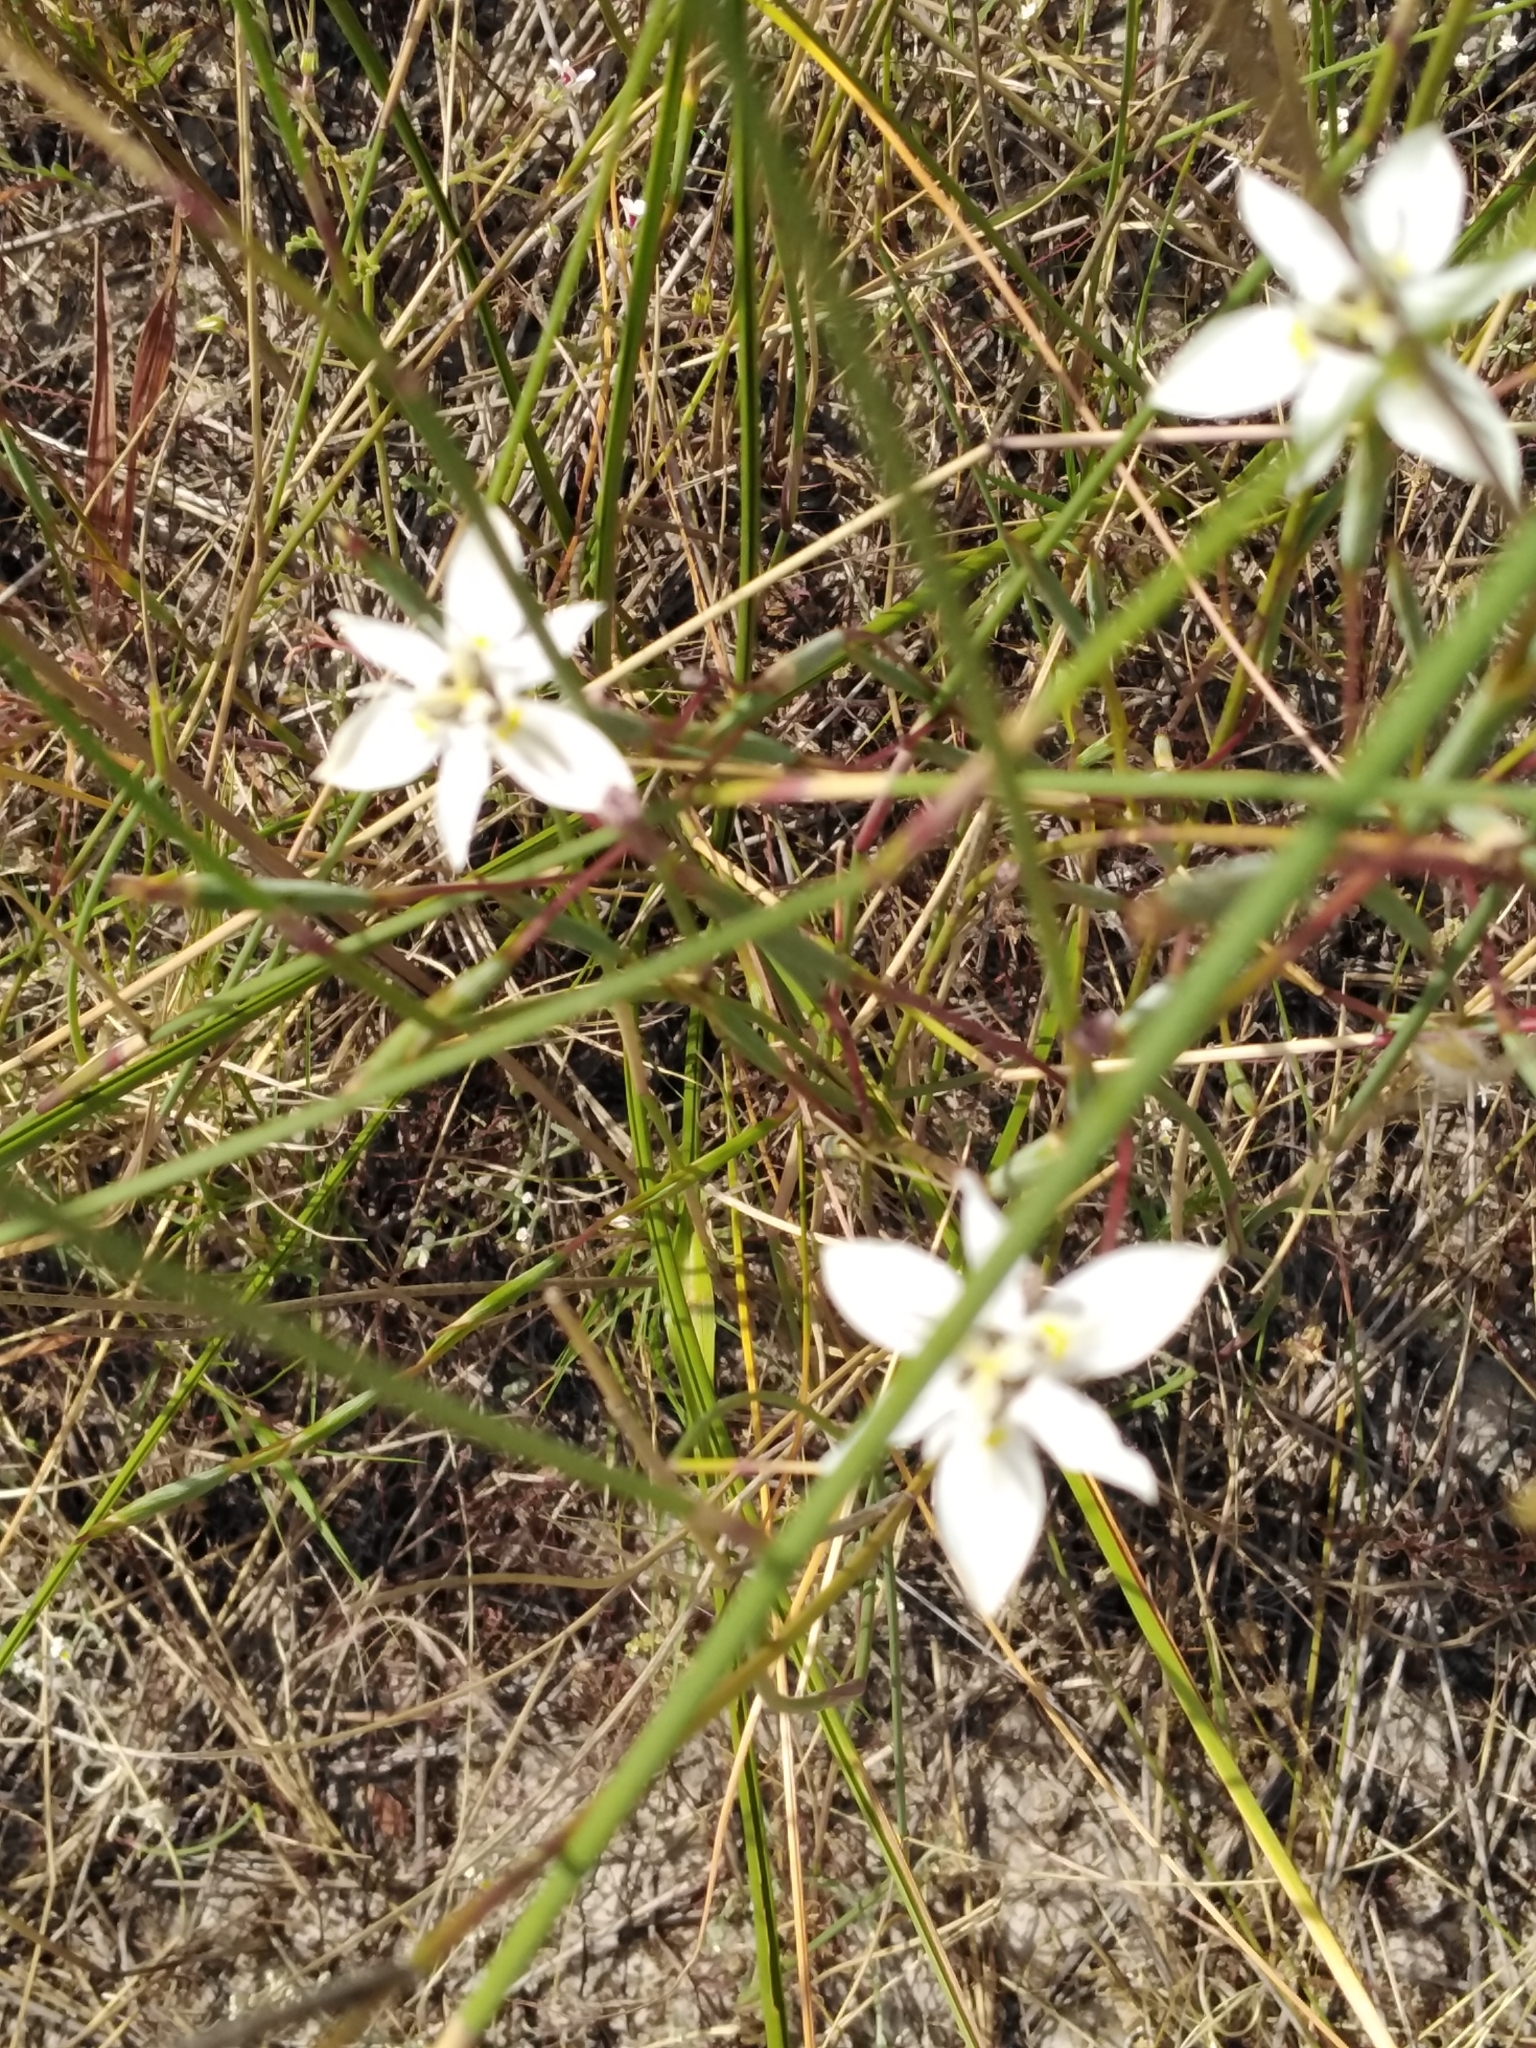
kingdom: Plantae
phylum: Tracheophyta
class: Liliopsida
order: Asparagales
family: Iridaceae
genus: Moraea
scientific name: Moraea viscaria
